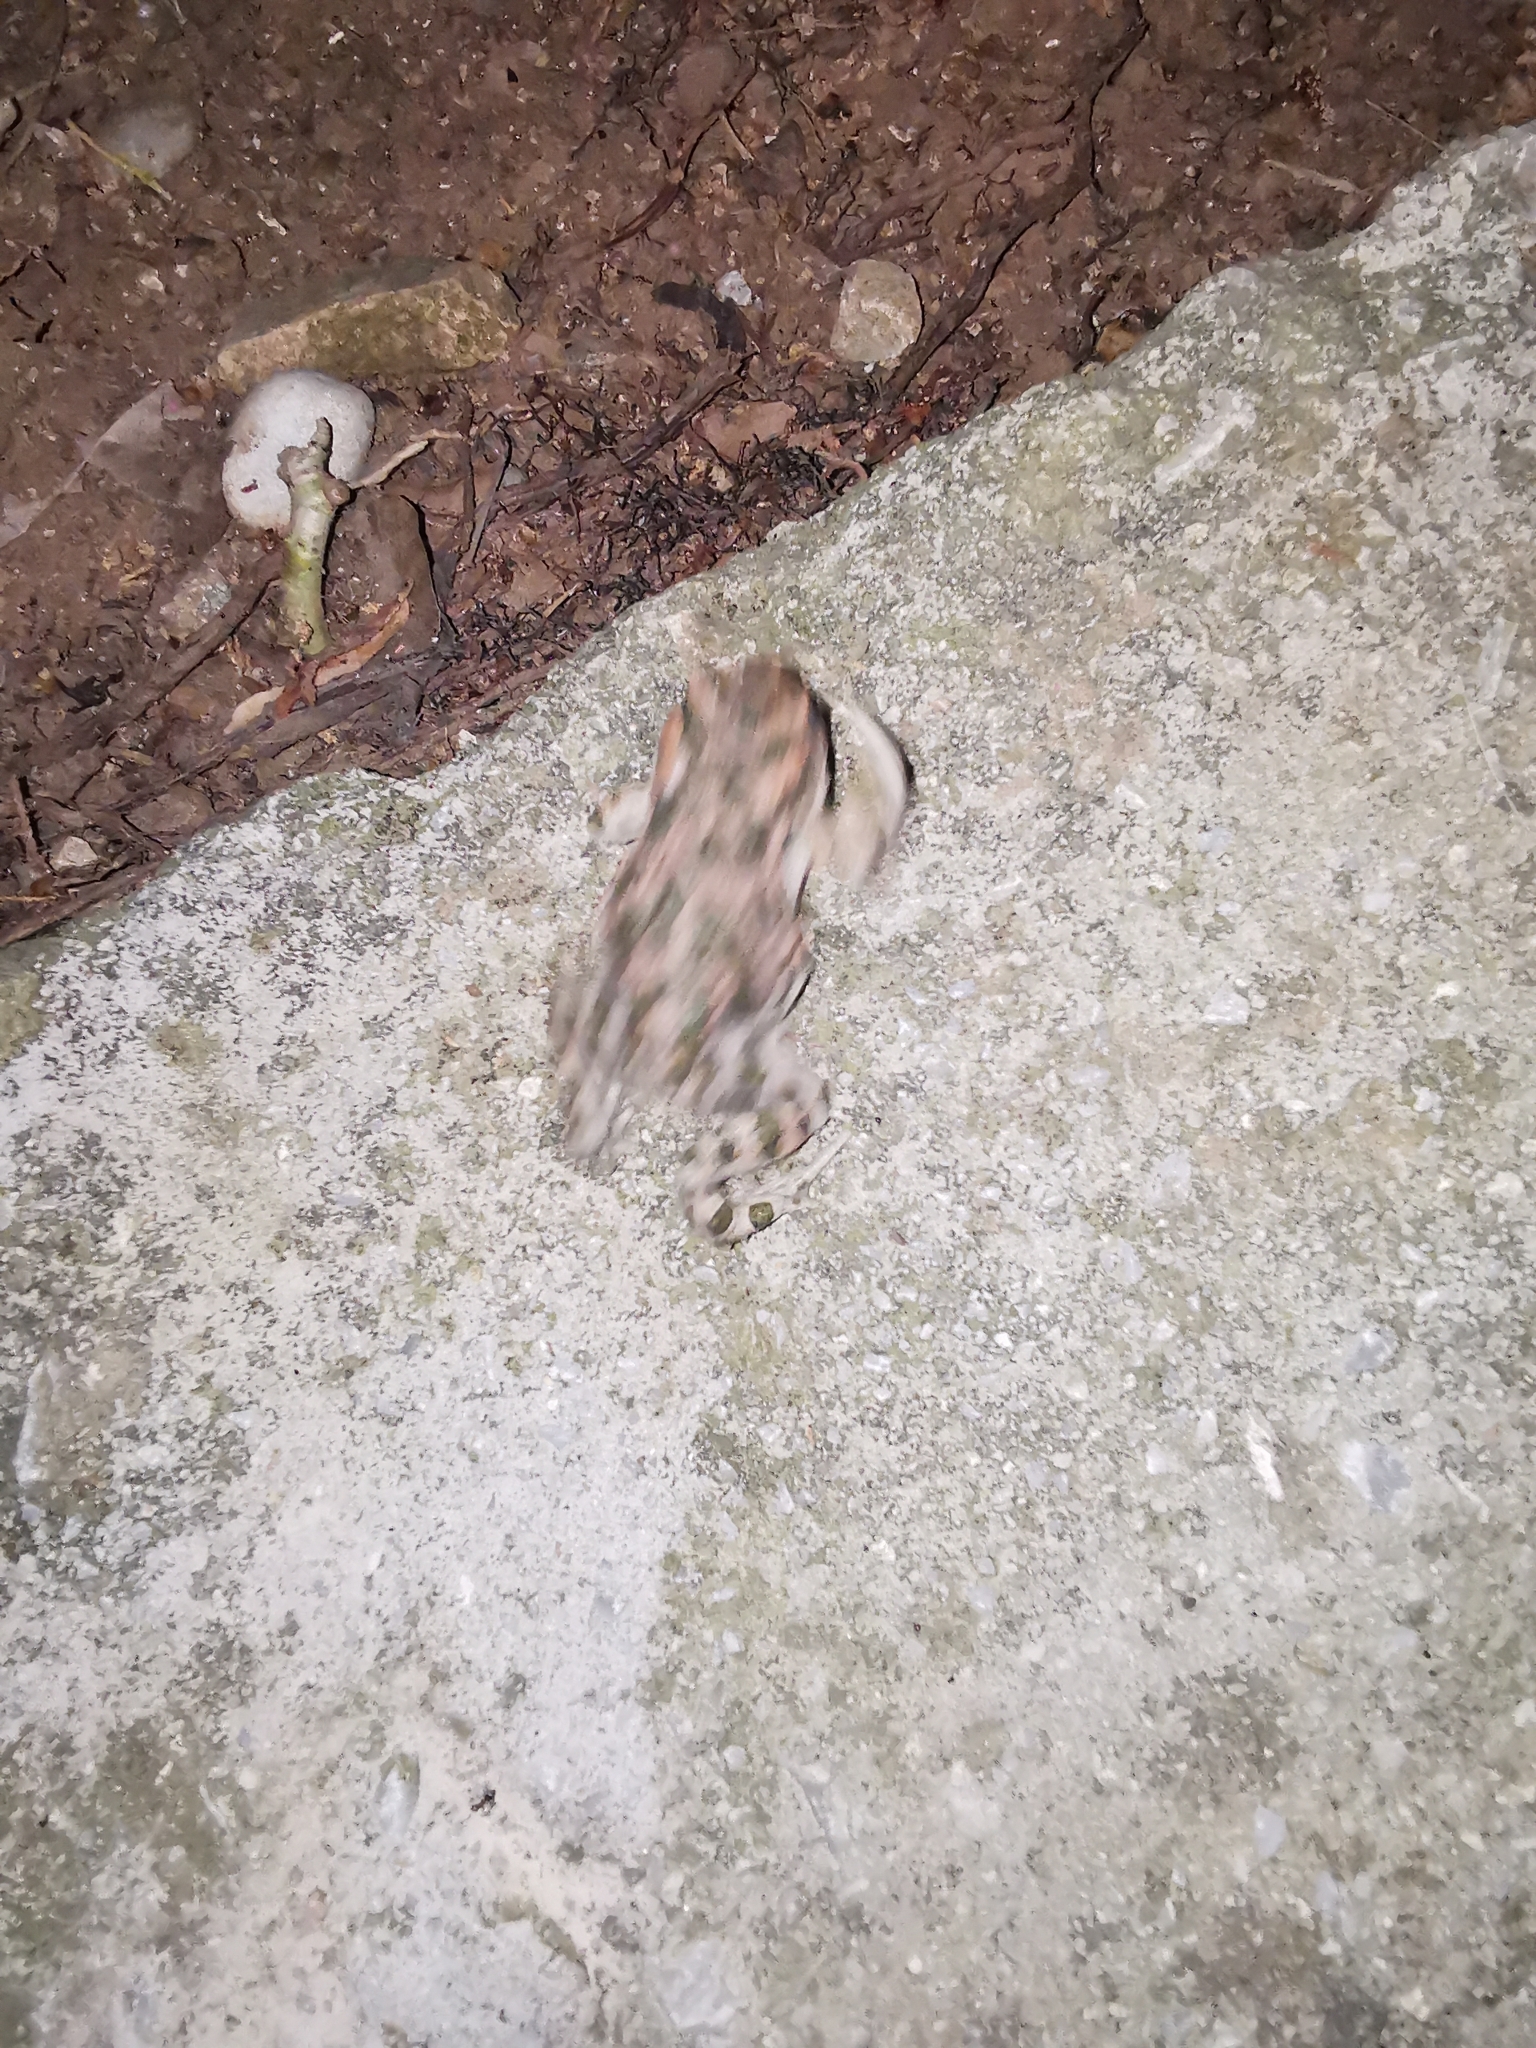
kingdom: Animalia
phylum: Chordata
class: Amphibia
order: Anura
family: Bufonidae
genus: Bufotes
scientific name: Bufotes viridis
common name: European green toad
